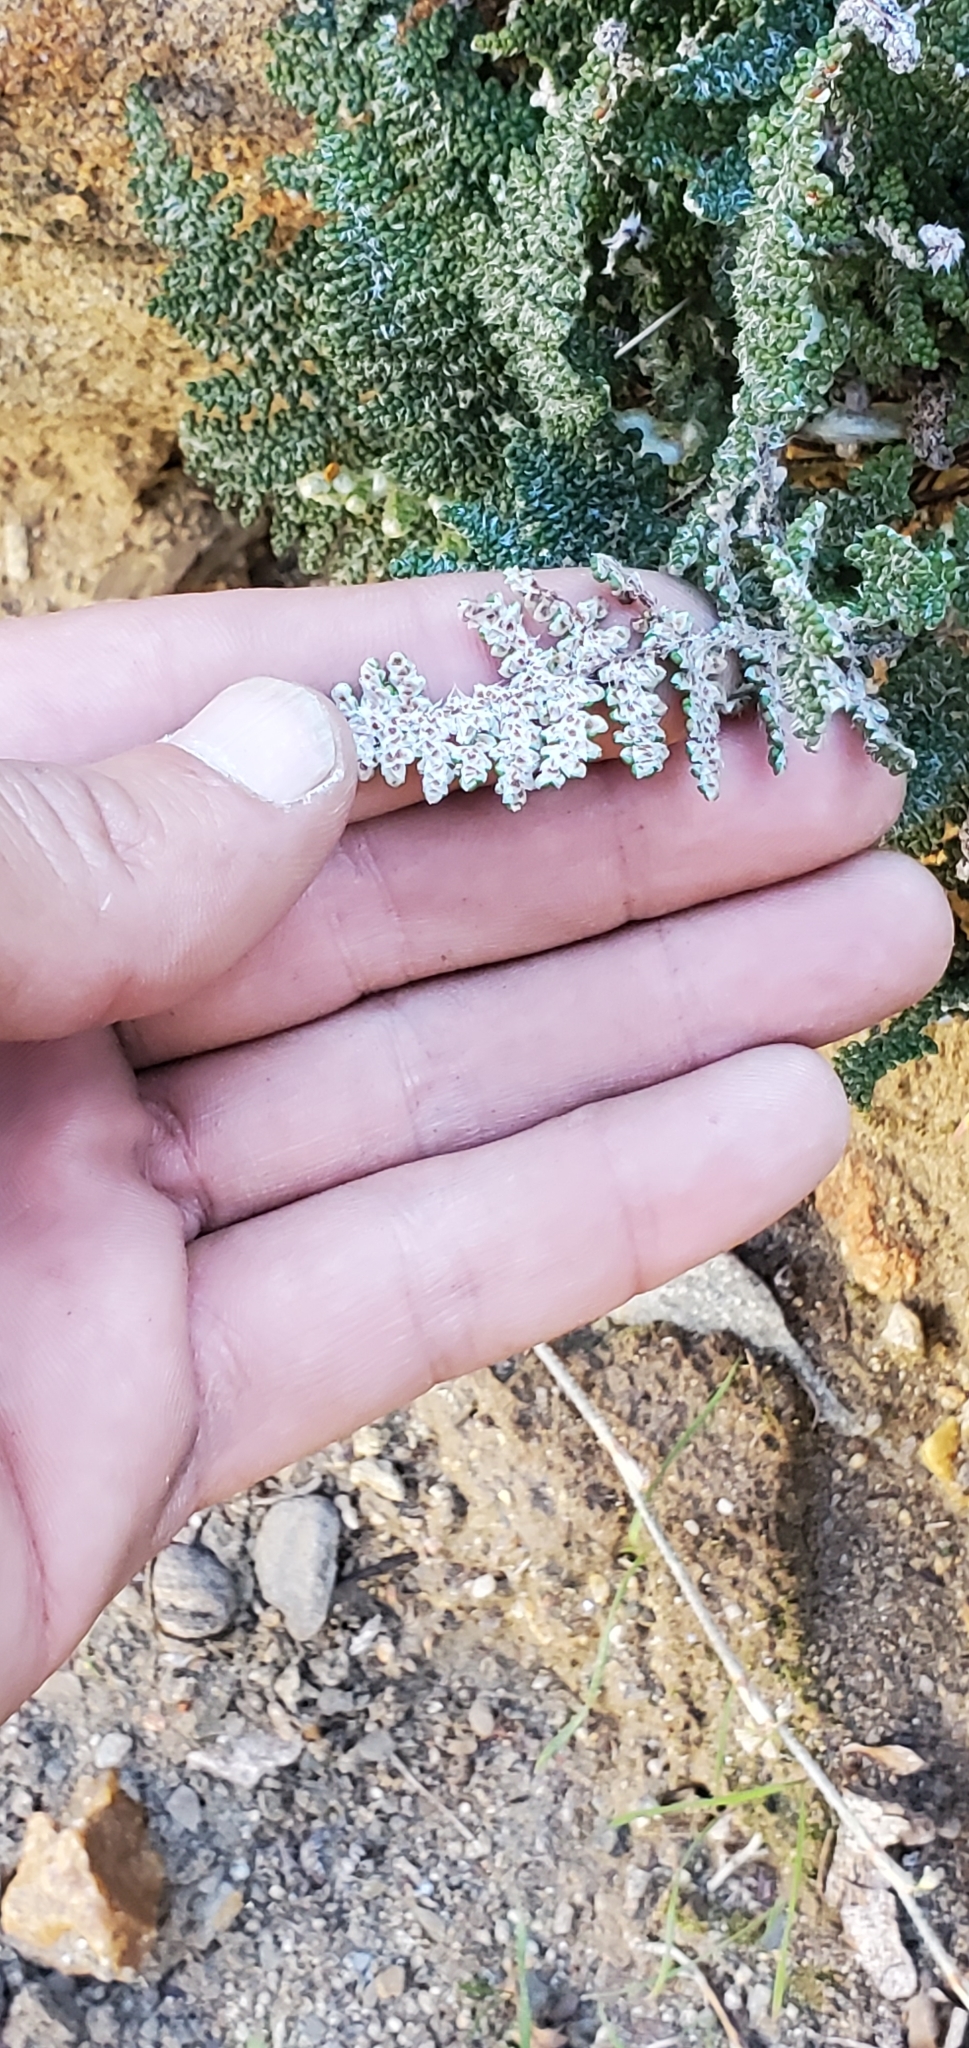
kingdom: Plantae
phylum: Tracheophyta
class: Polypodiopsida
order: Polypodiales
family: Pteridaceae
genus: Myriopteris
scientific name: Myriopteris covillei
